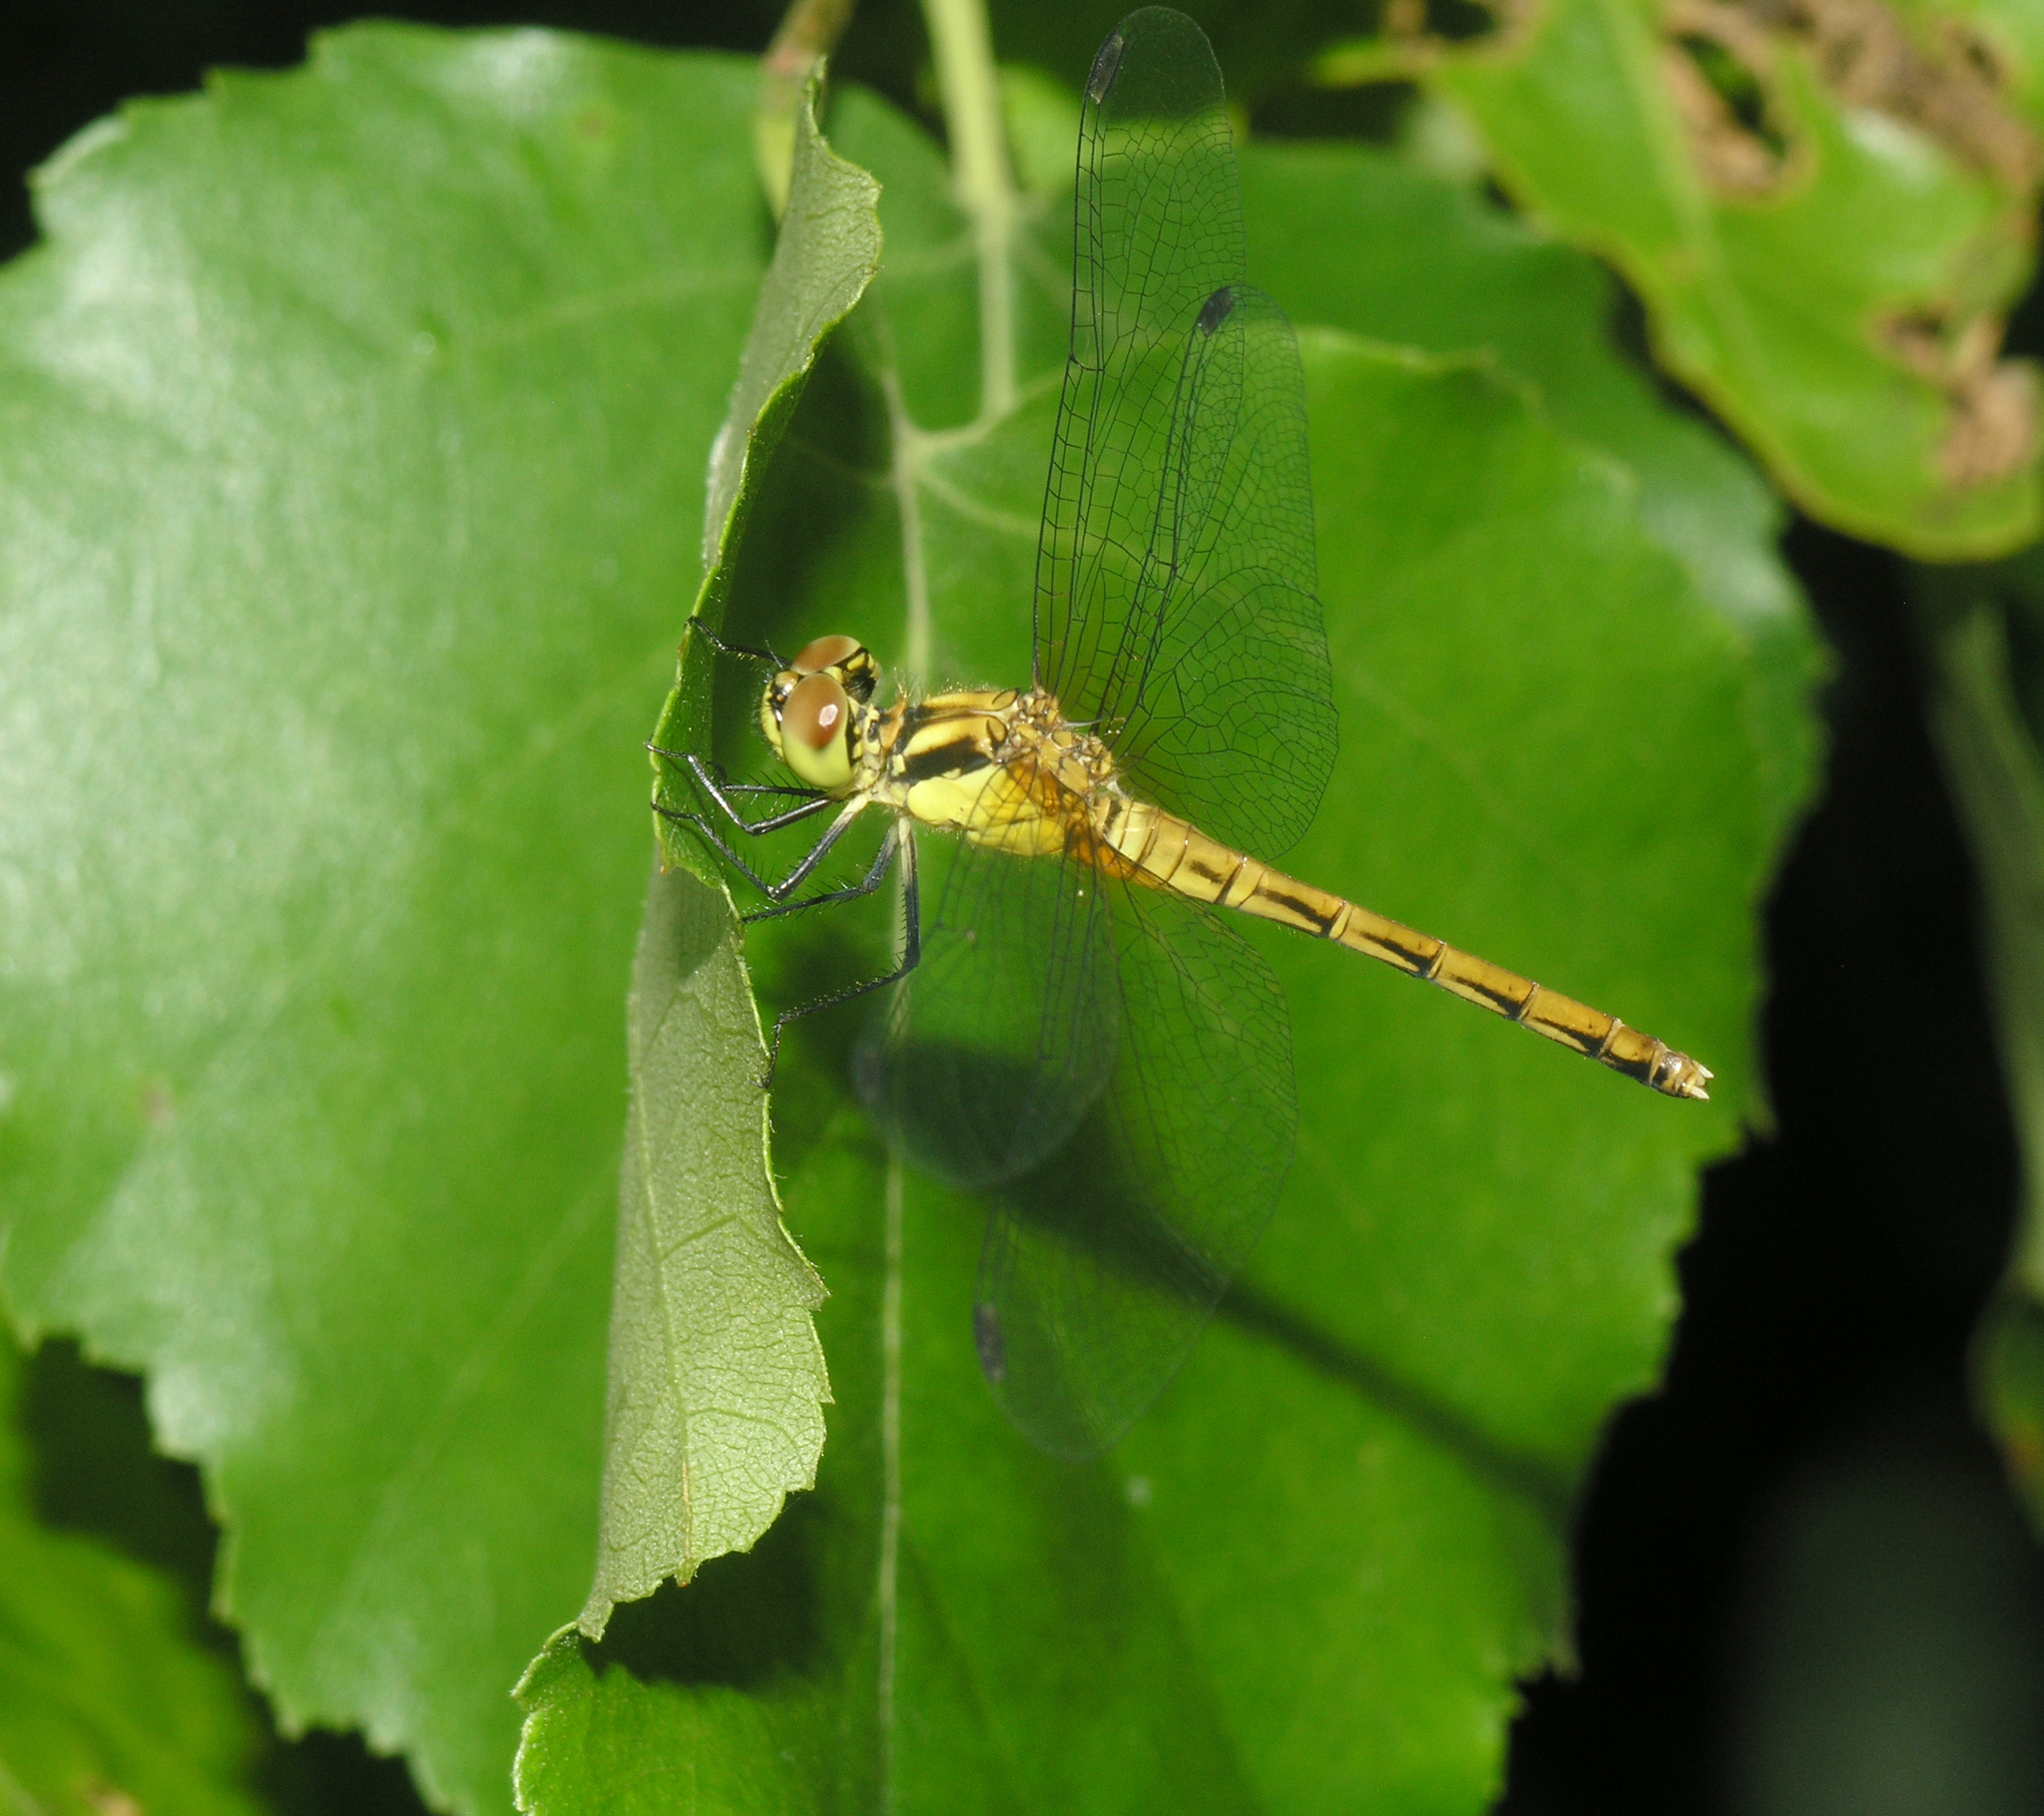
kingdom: Animalia
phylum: Arthropoda
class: Insecta
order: Odonata
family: Libellulidae
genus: Sympetrum
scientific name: Sympetrum eroticum
